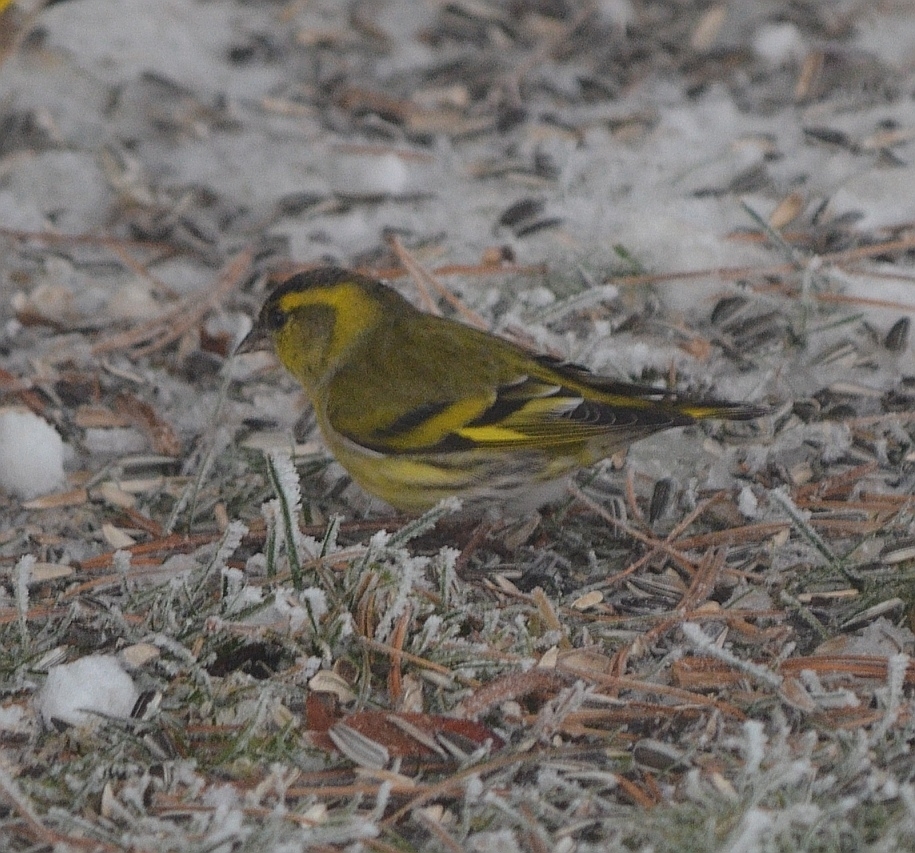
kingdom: Animalia
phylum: Chordata
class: Aves
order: Passeriformes
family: Fringillidae
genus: Spinus
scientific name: Spinus spinus
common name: Eurasian siskin
